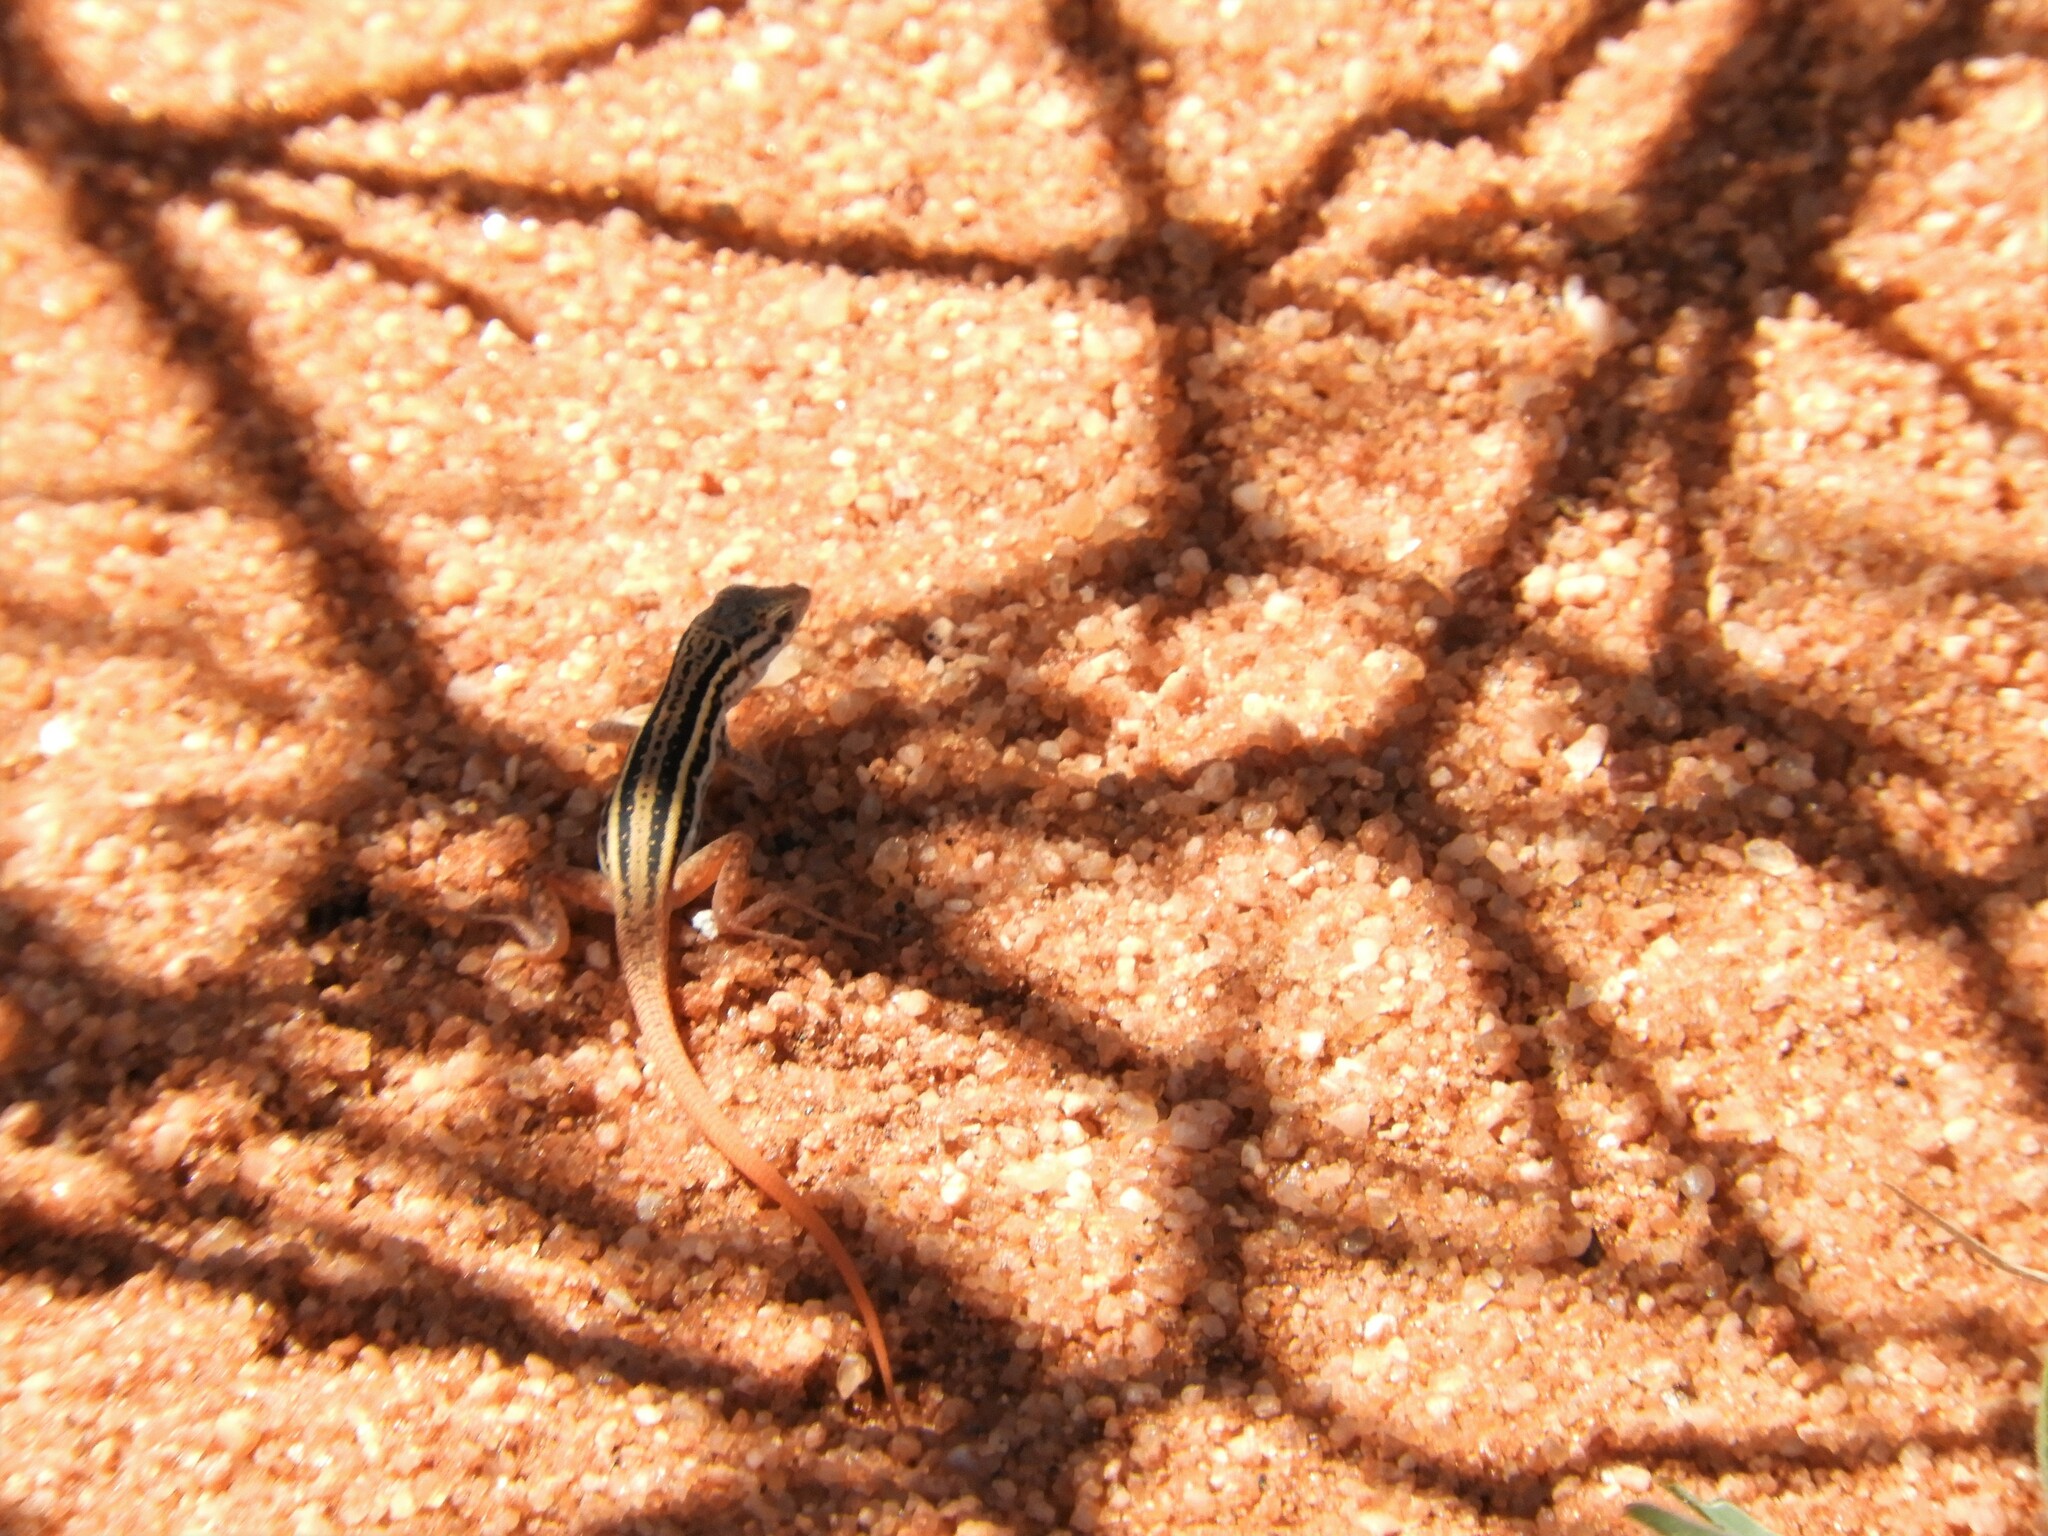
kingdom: Animalia
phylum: Chordata
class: Squamata
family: Lacertidae
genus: Pedioplanis
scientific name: Pedioplanis lineoocellata
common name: Spotted sand lizard
